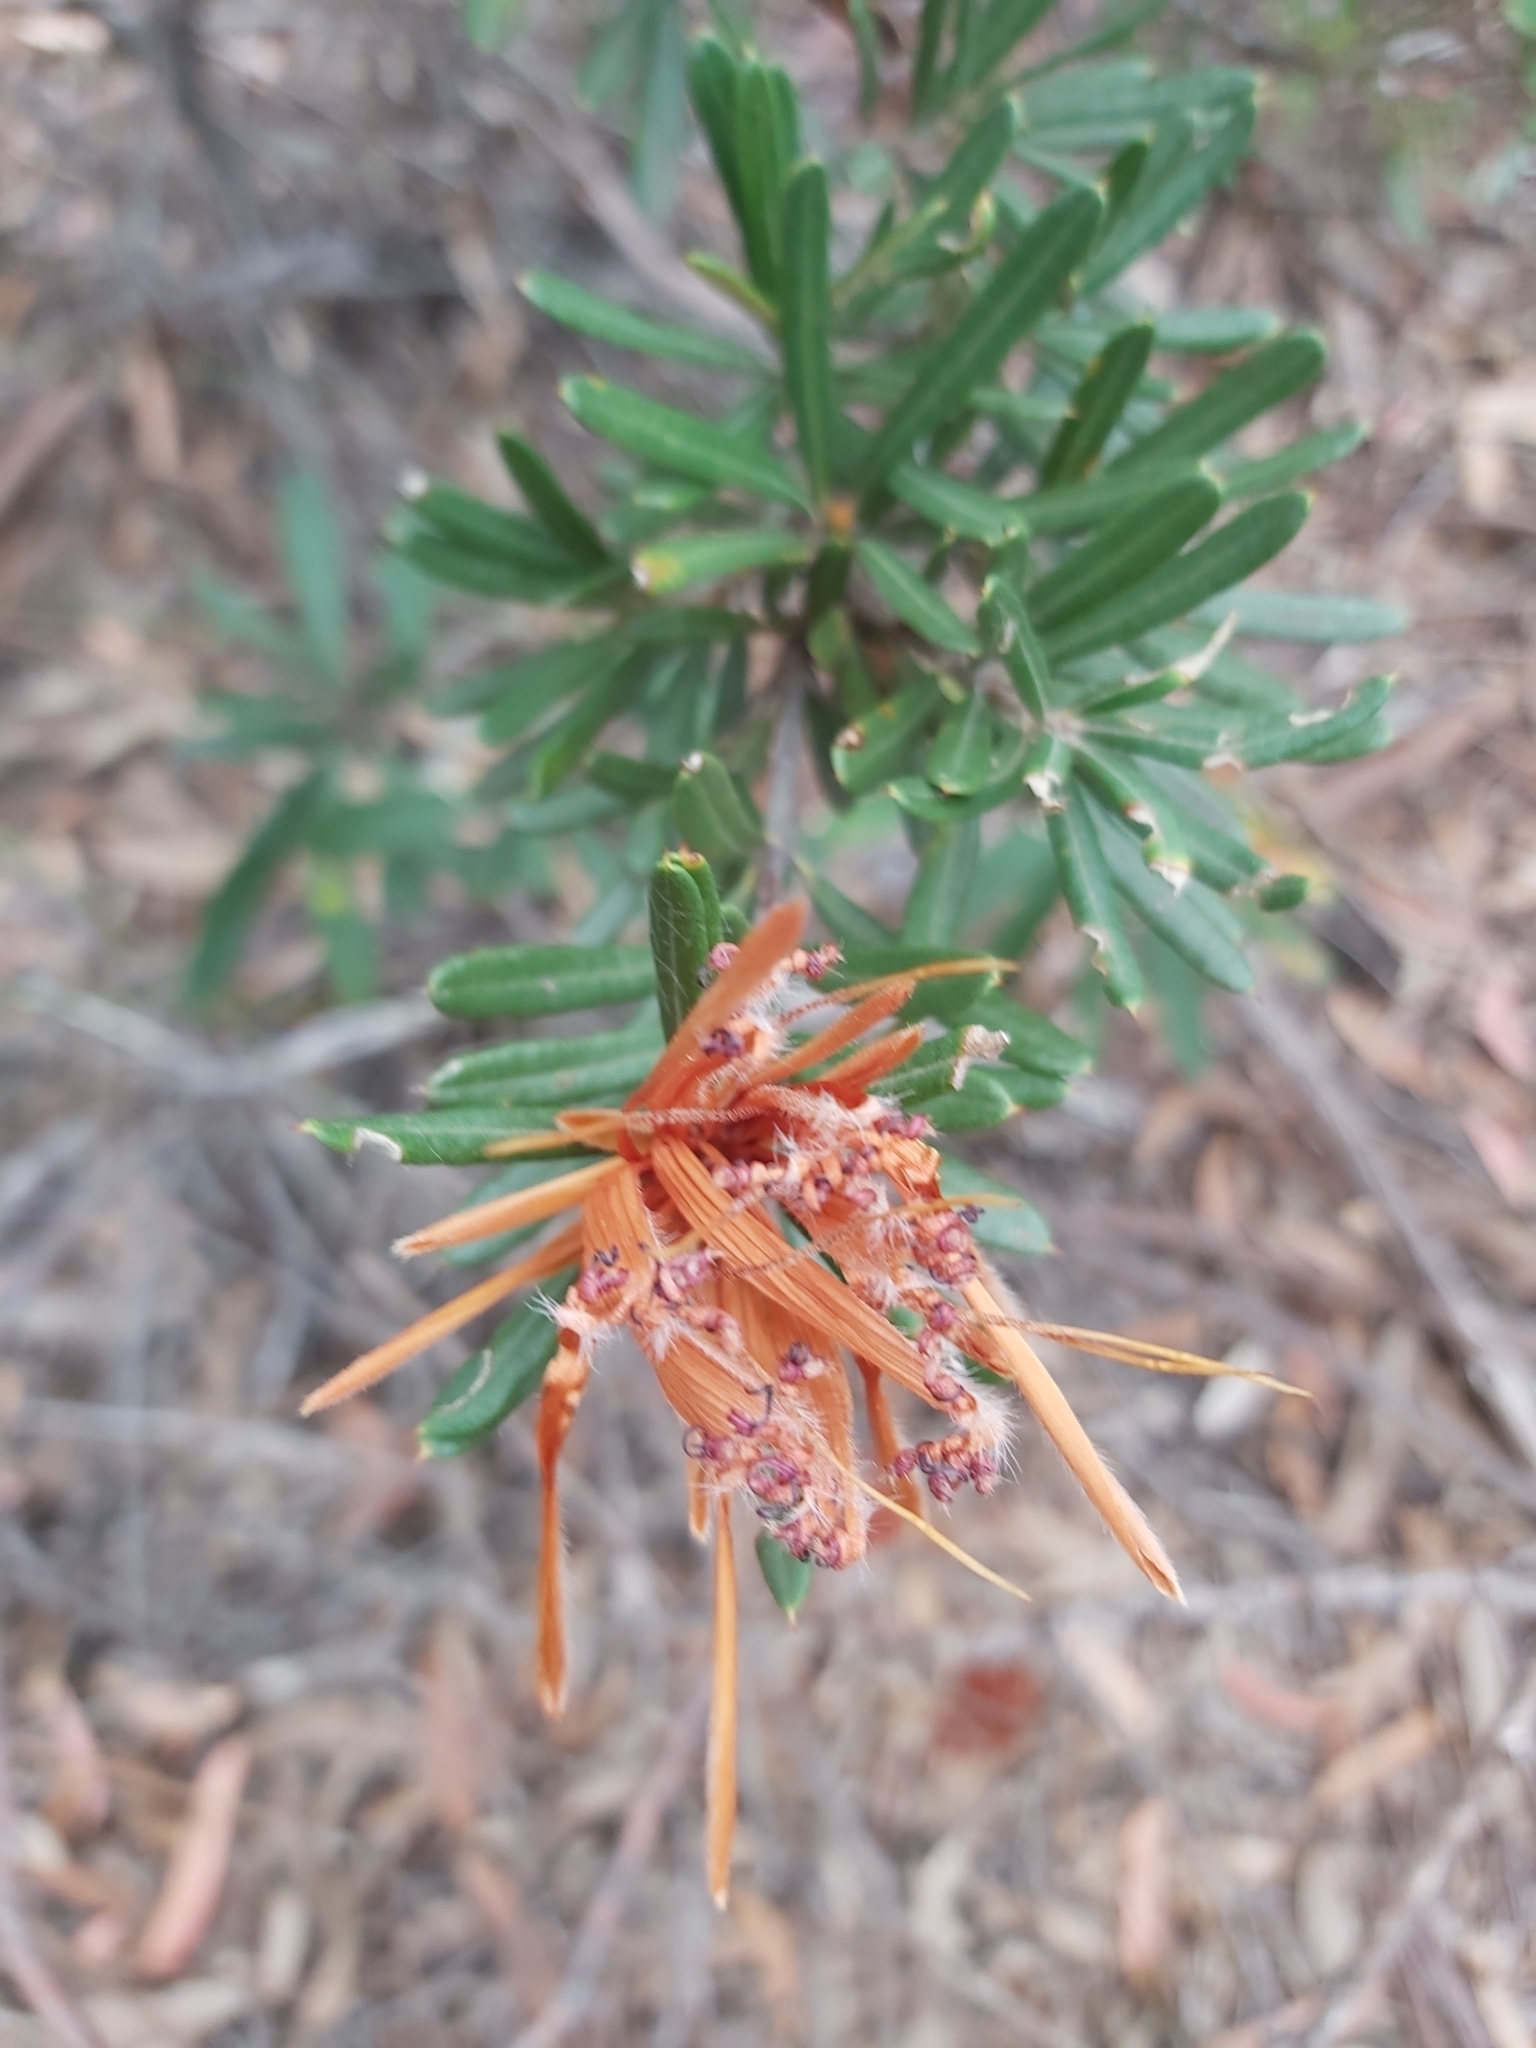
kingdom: Plantae
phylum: Tracheophyta
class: Magnoliopsida
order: Proteales
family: Proteaceae
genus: Lambertia
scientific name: Lambertia formosa
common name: Mountain-devil
